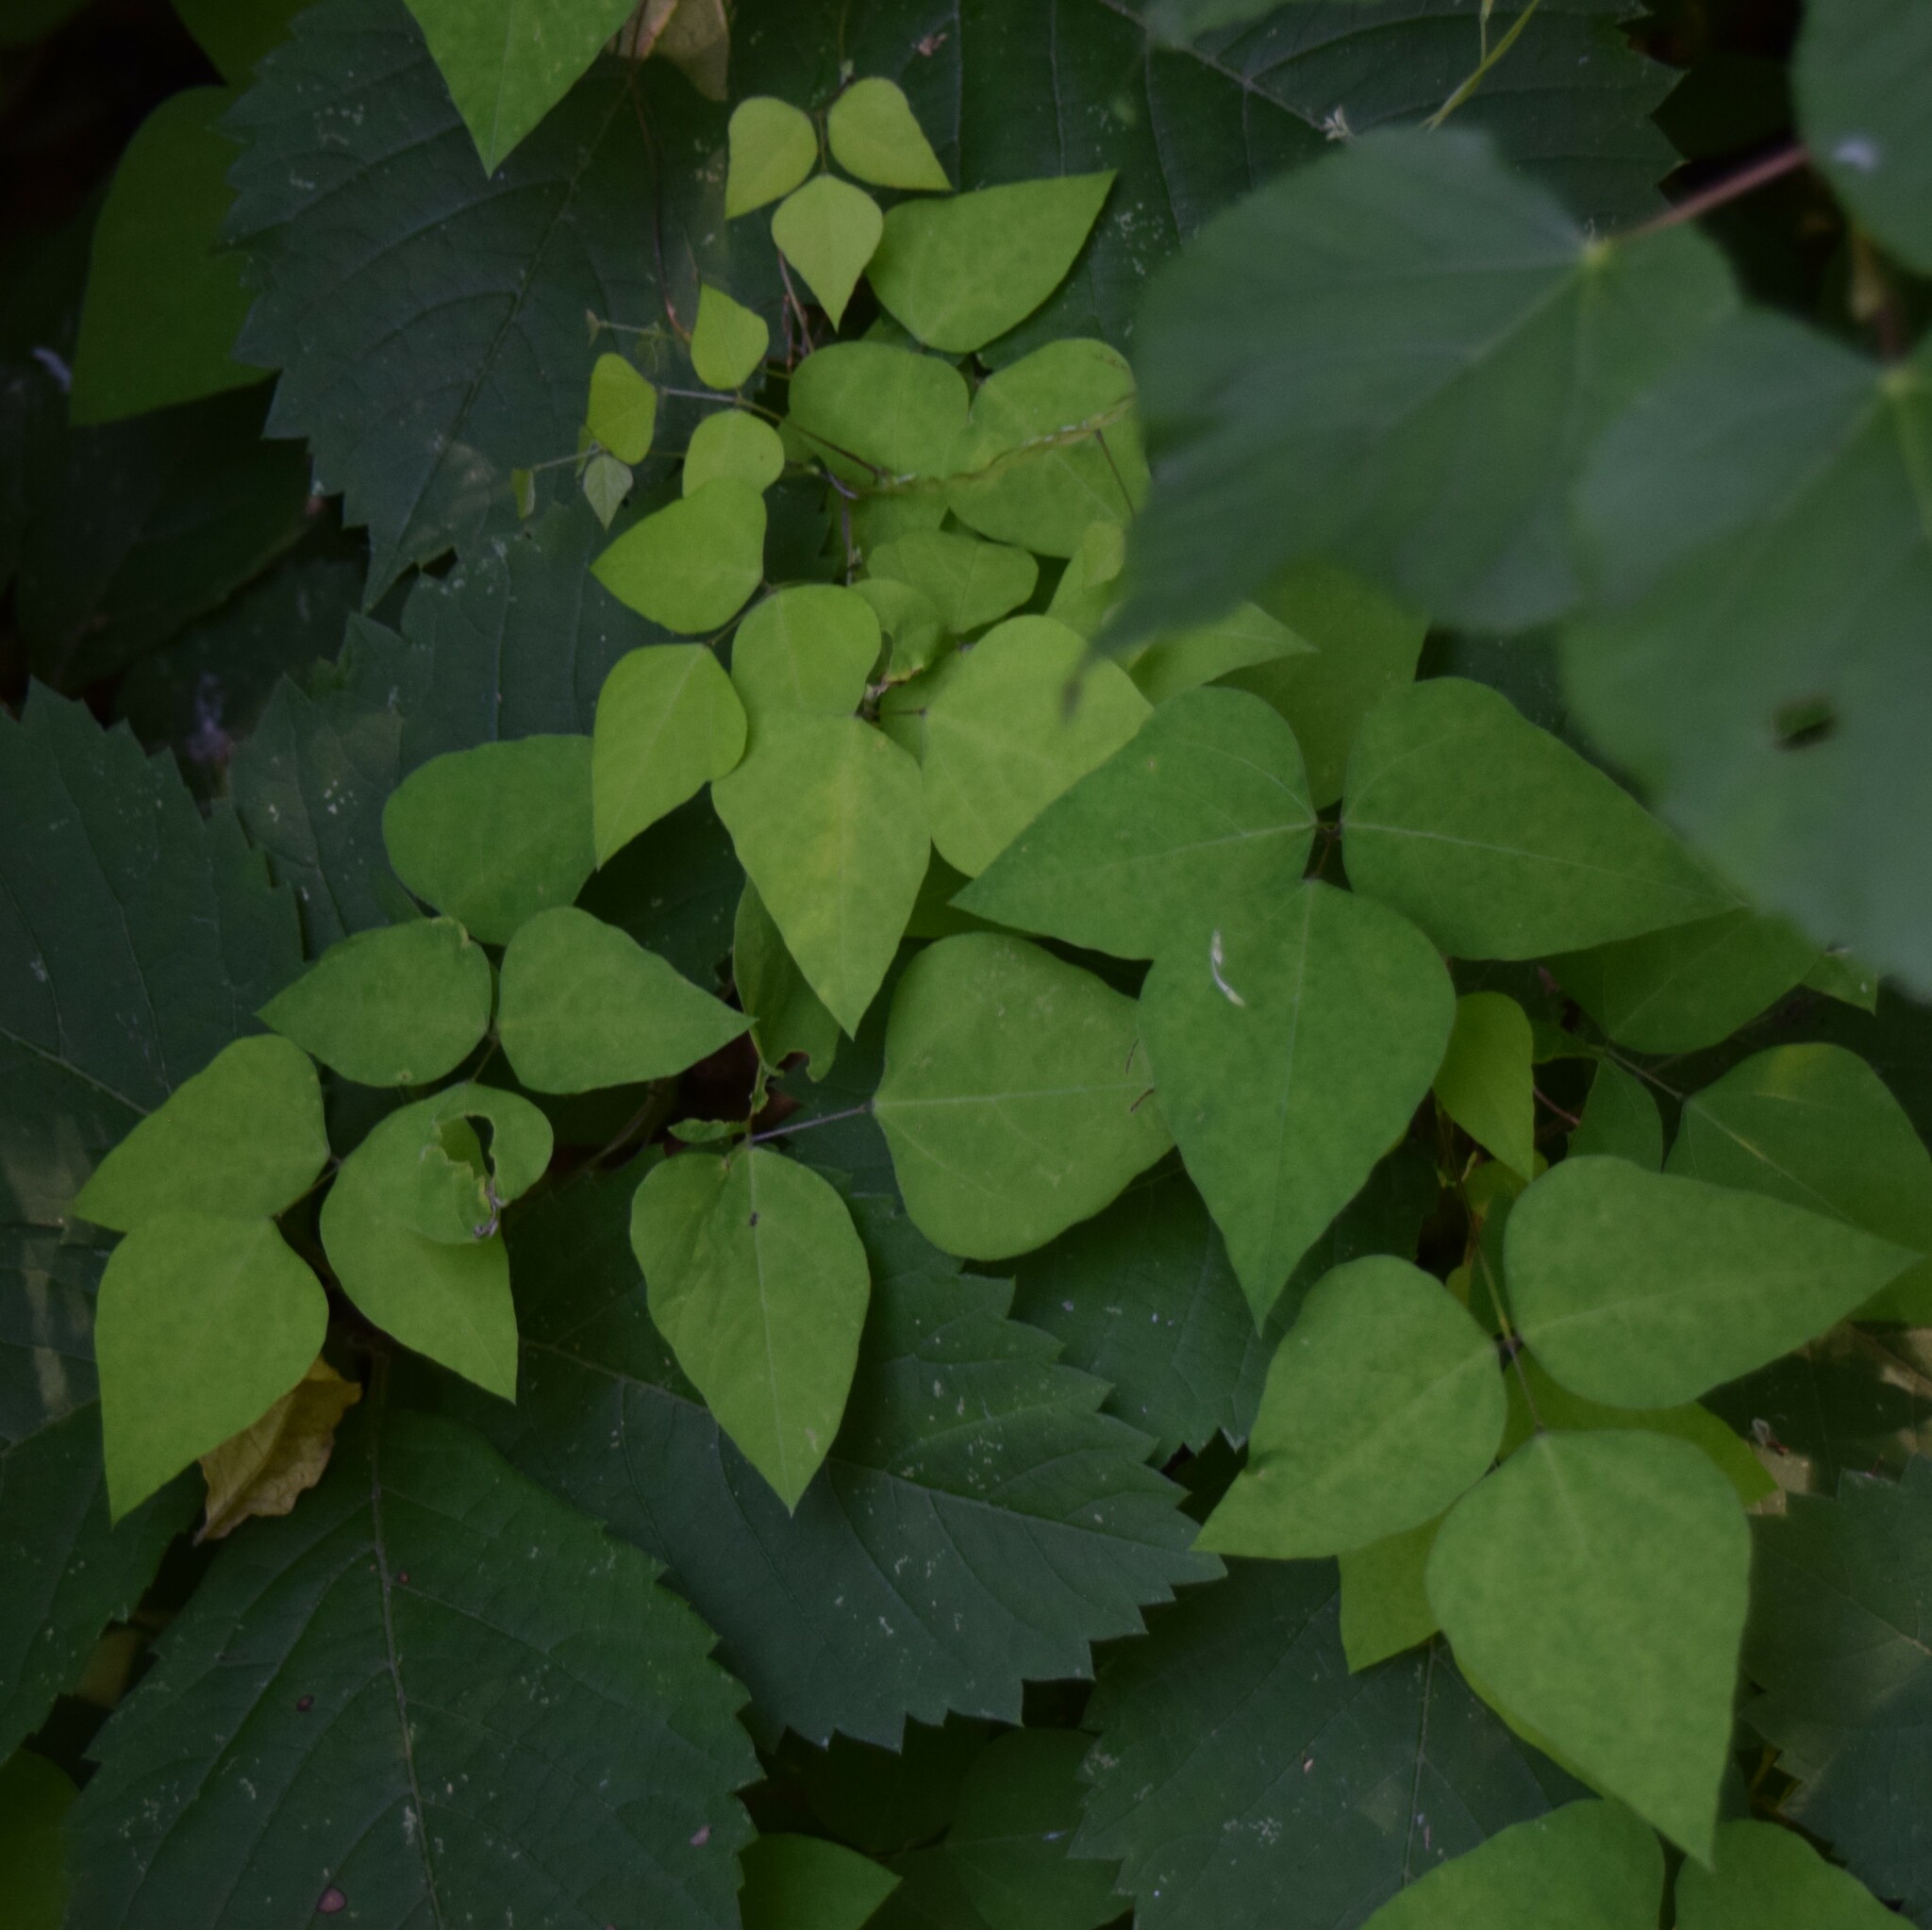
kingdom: Plantae
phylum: Tracheophyta
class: Magnoliopsida
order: Fabales
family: Fabaceae
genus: Amphicarpaea
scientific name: Amphicarpaea bracteata
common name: American hog peanut
